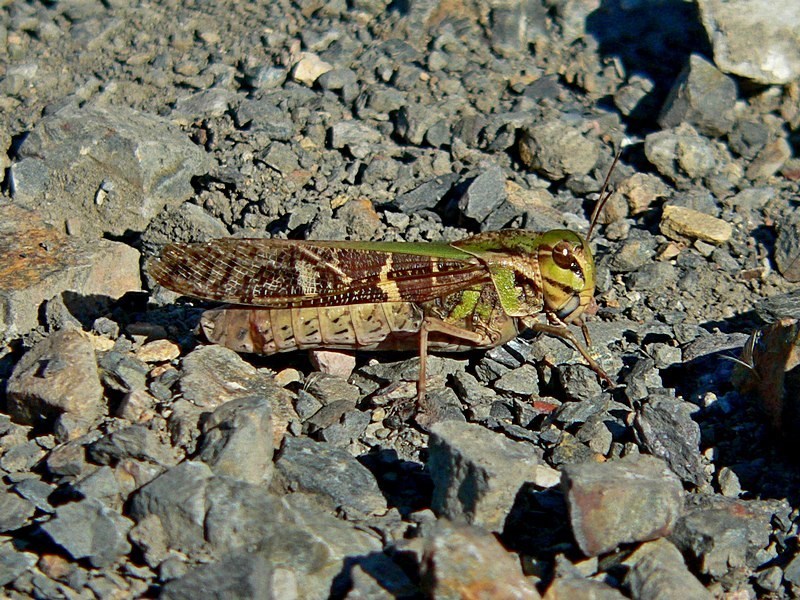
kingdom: Animalia
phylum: Arthropoda
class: Insecta
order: Orthoptera
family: Acrididae
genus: Gastrimargus
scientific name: Gastrimargus musicus
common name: Yellow-winged locust
